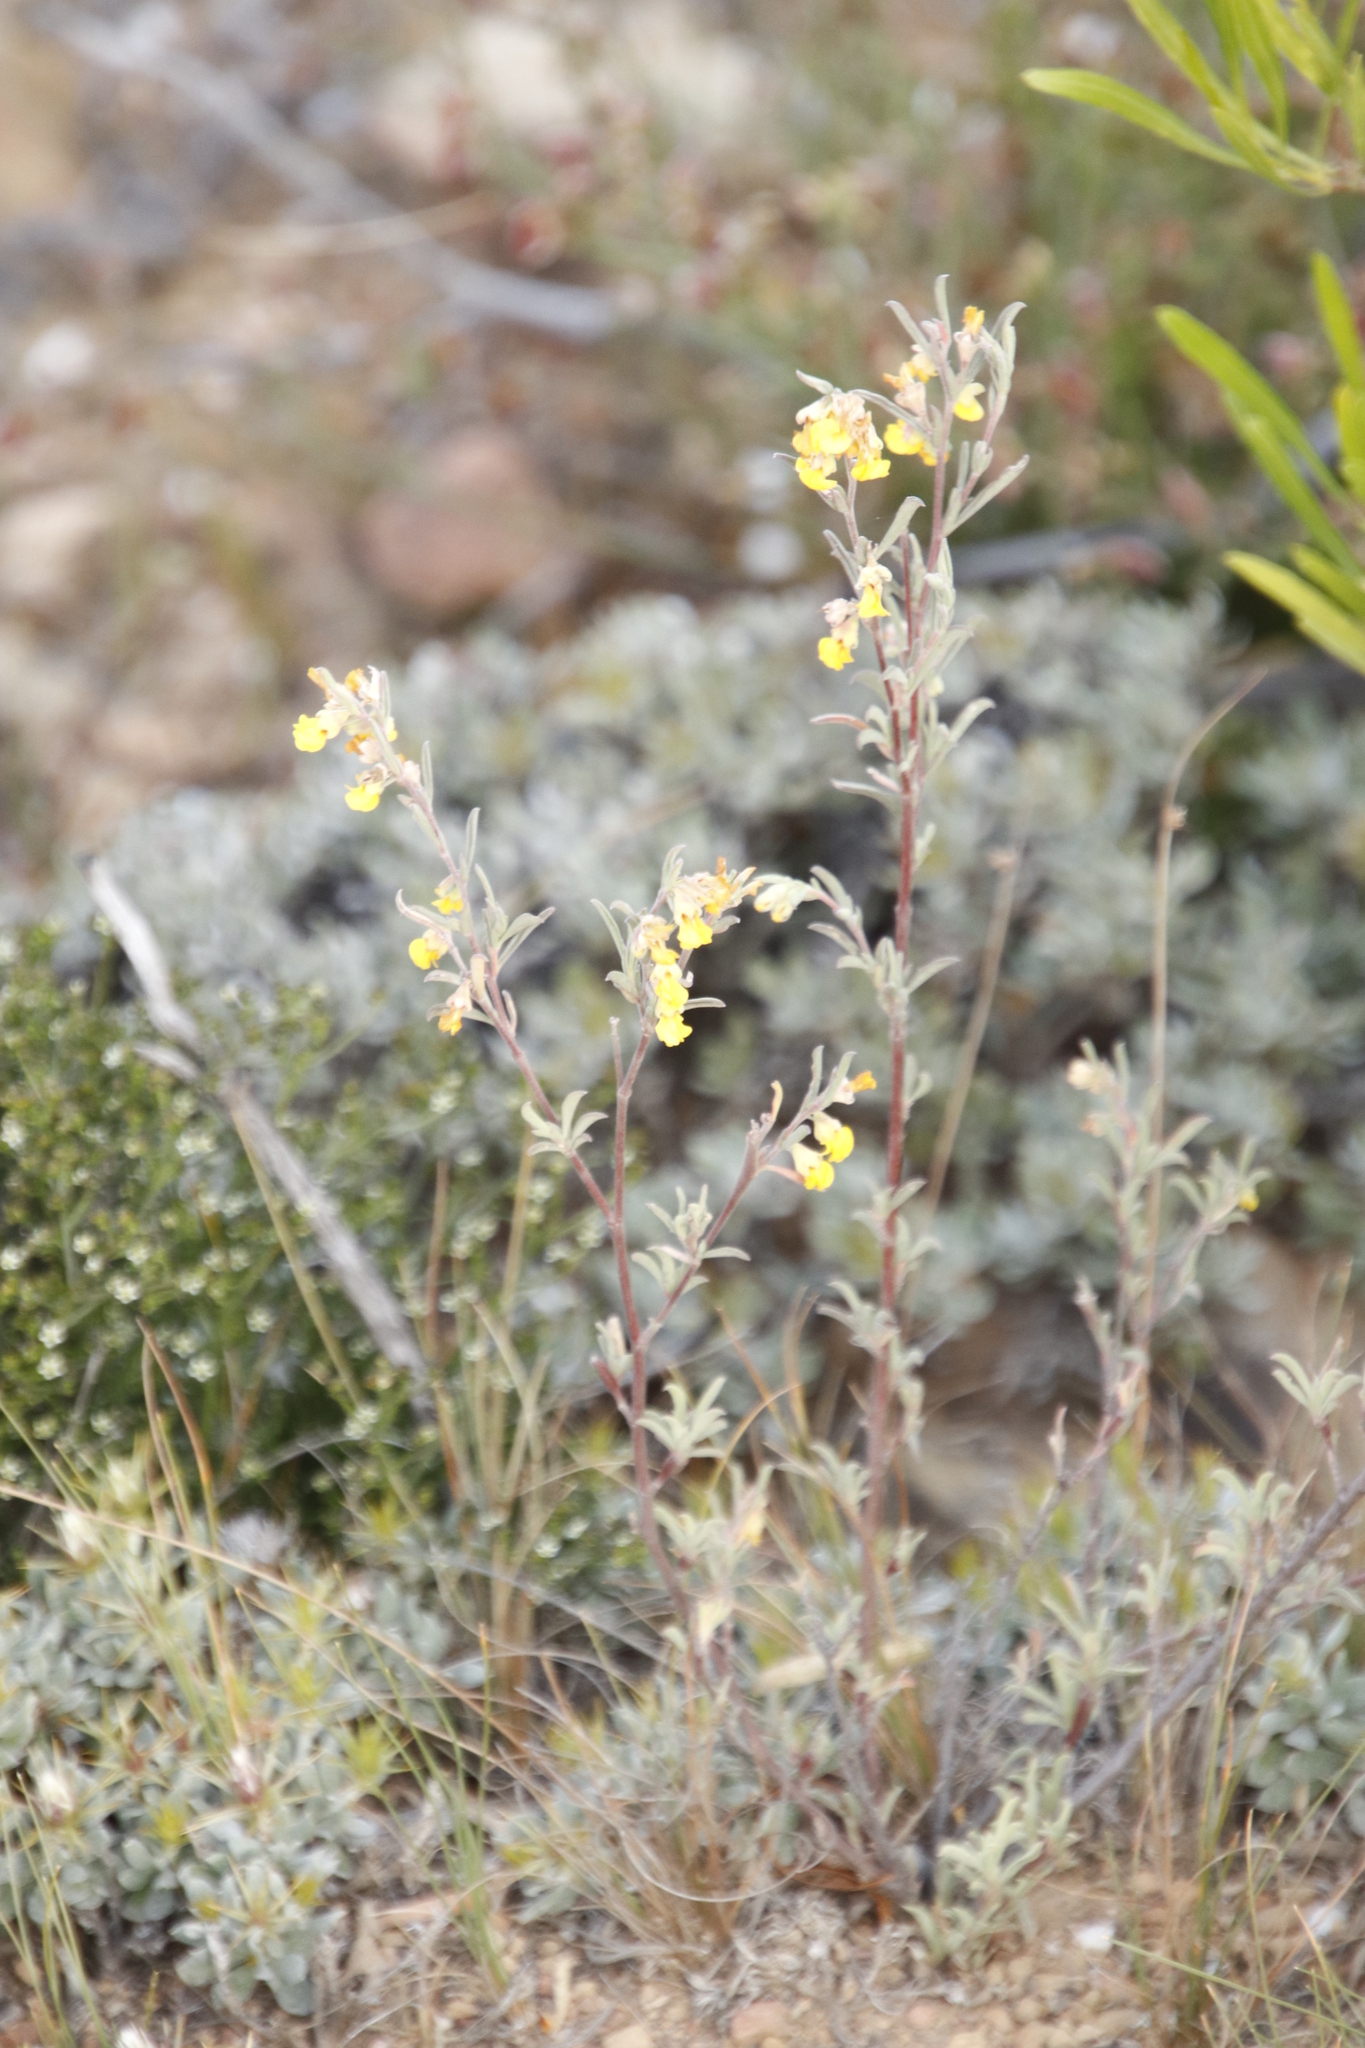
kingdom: Plantae
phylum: Tracheophyta
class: Magnoliopsida
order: Malvales
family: Malvaceae
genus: Hermannia
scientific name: Hermannia diversistipula
